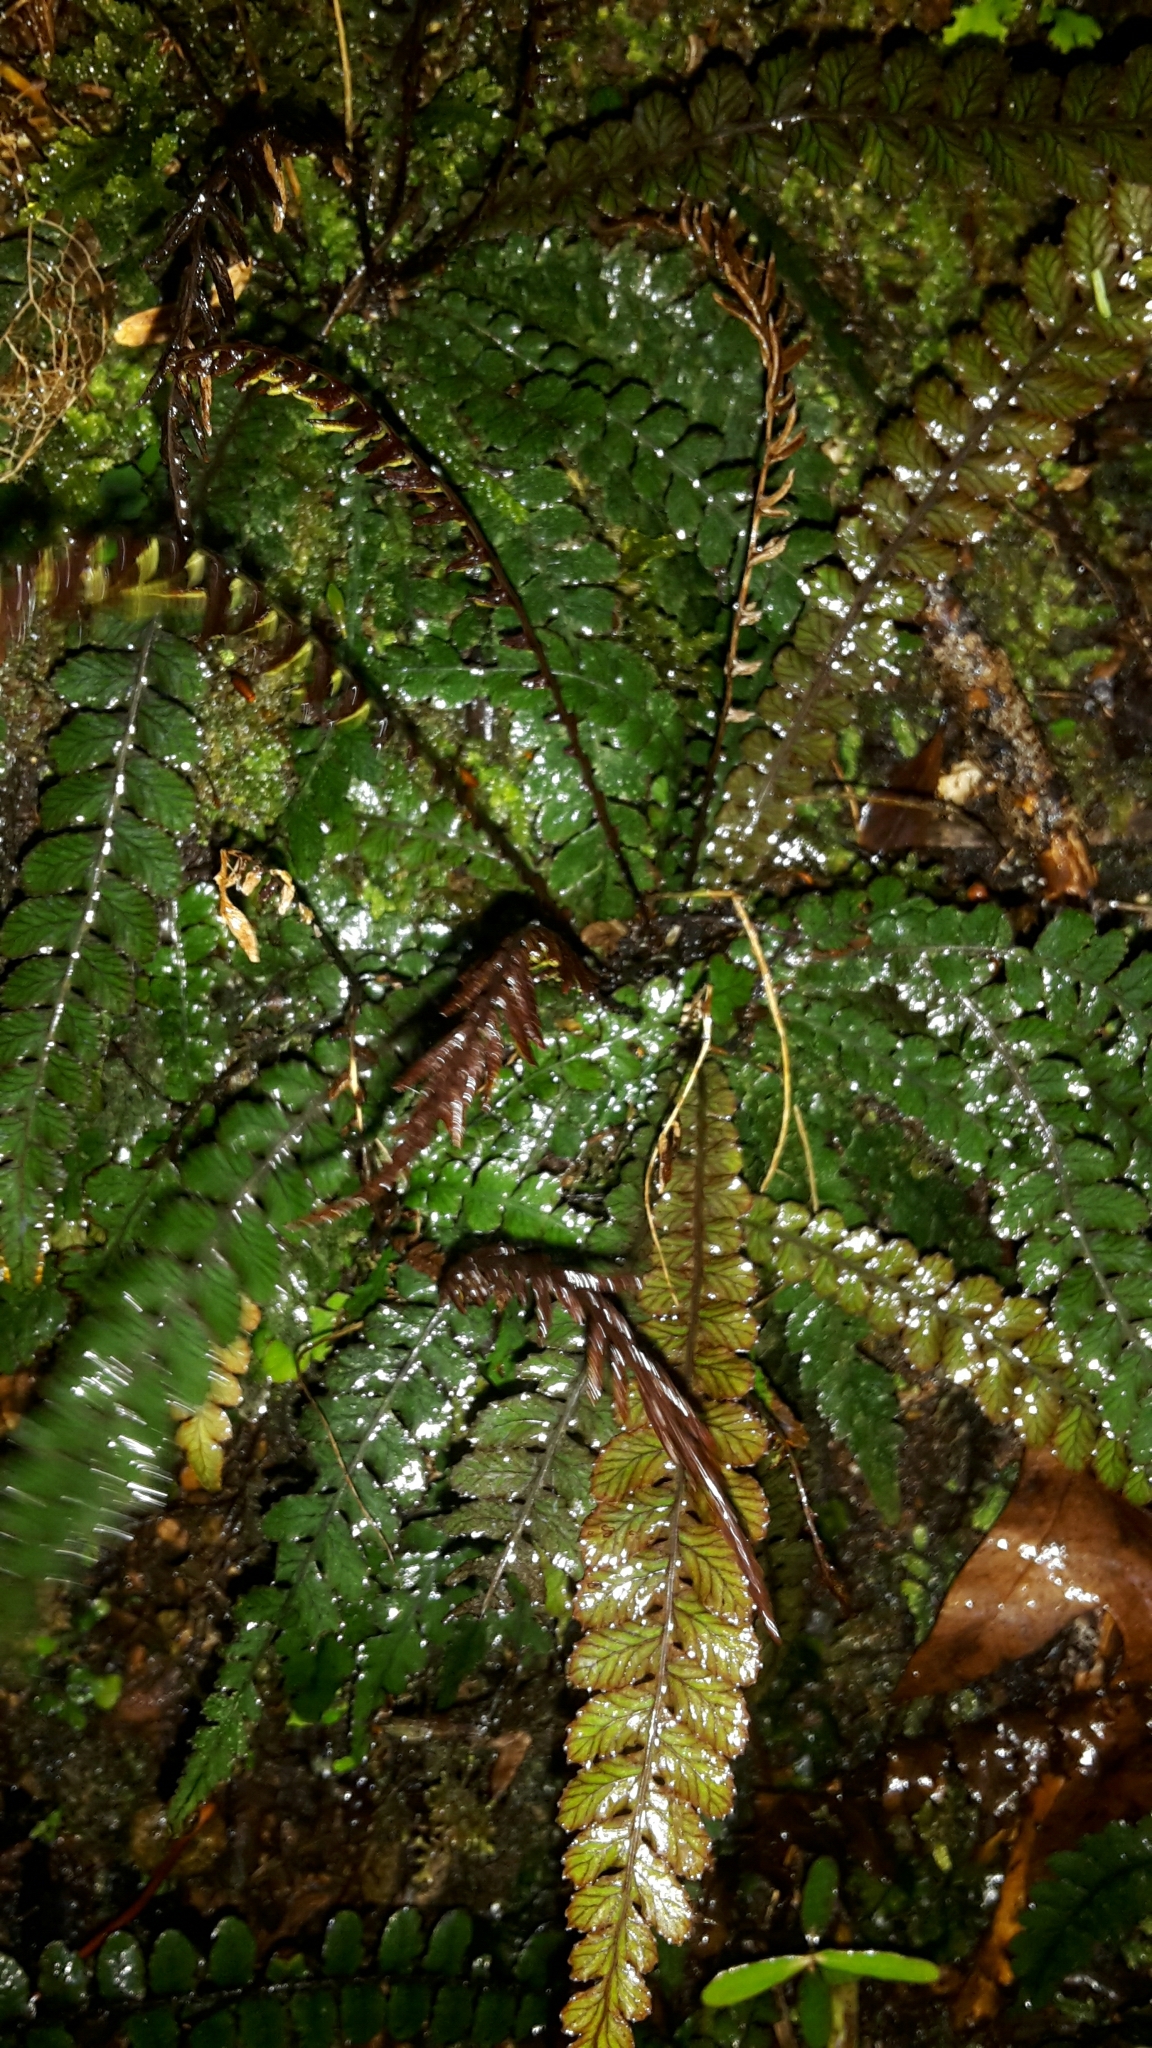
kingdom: Plantae
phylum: Tracheophyta
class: Polypodiopsida
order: Polypodiales
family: Blechnaceae
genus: Austroblechnum
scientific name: Austroblechnum membranaceum
